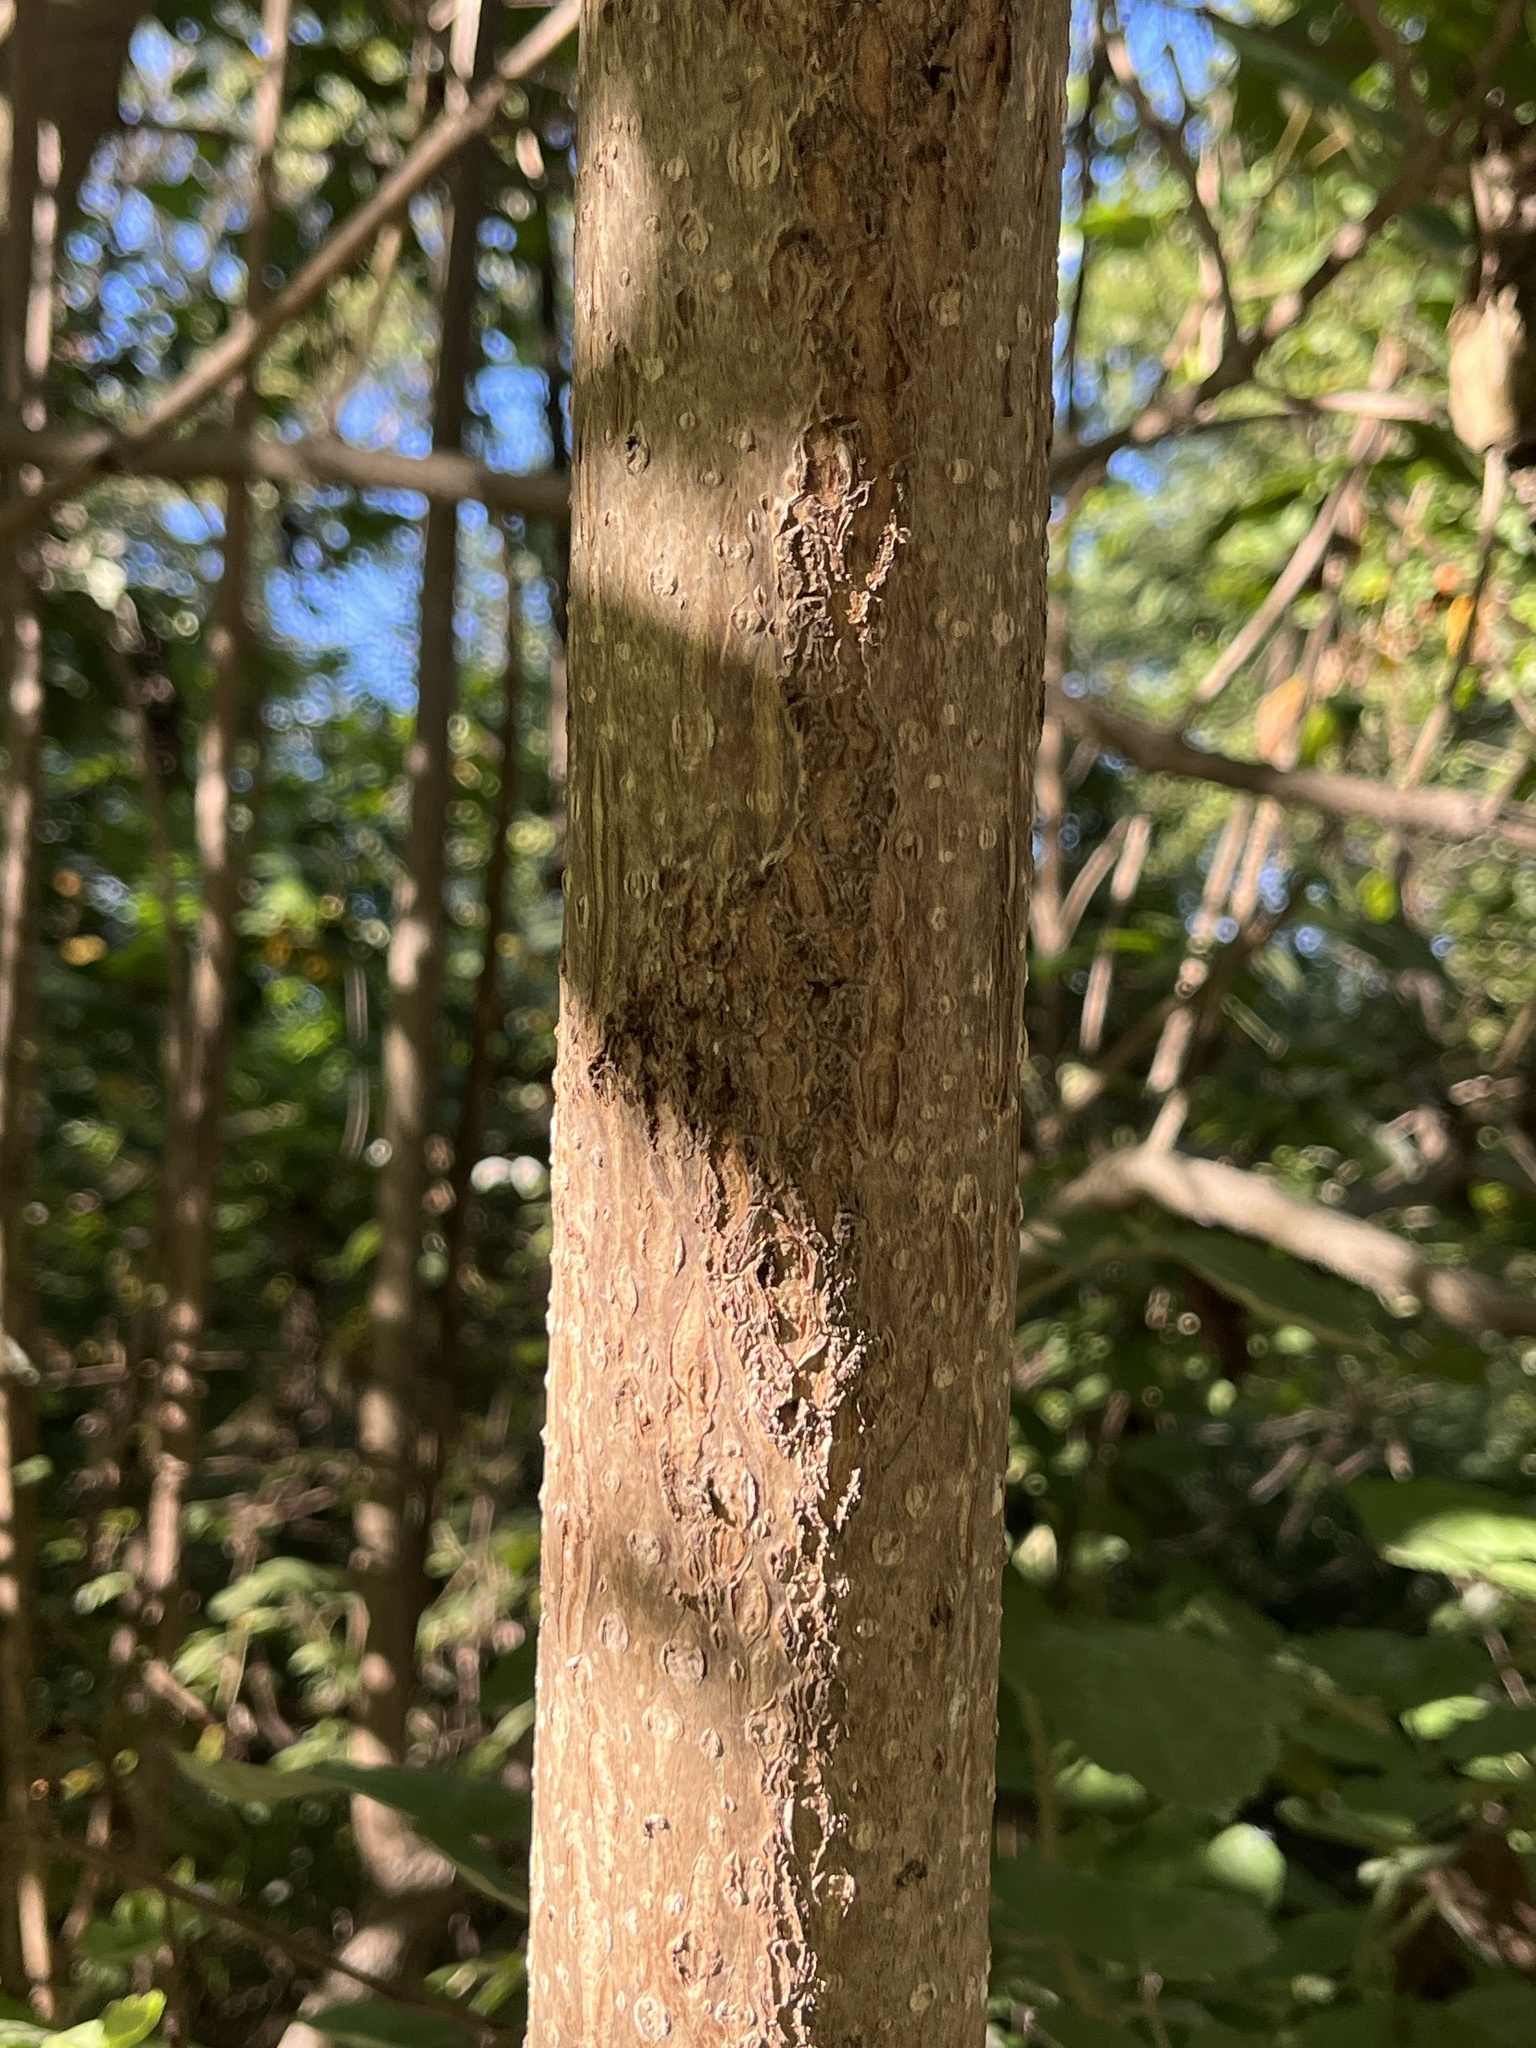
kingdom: Plantae
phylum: Tracheophyta
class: Magnoliopsida
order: Lamiales
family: Paulowniaceae
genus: Paulownia
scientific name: Paulownia tomentosa
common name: Foxglove-tree
